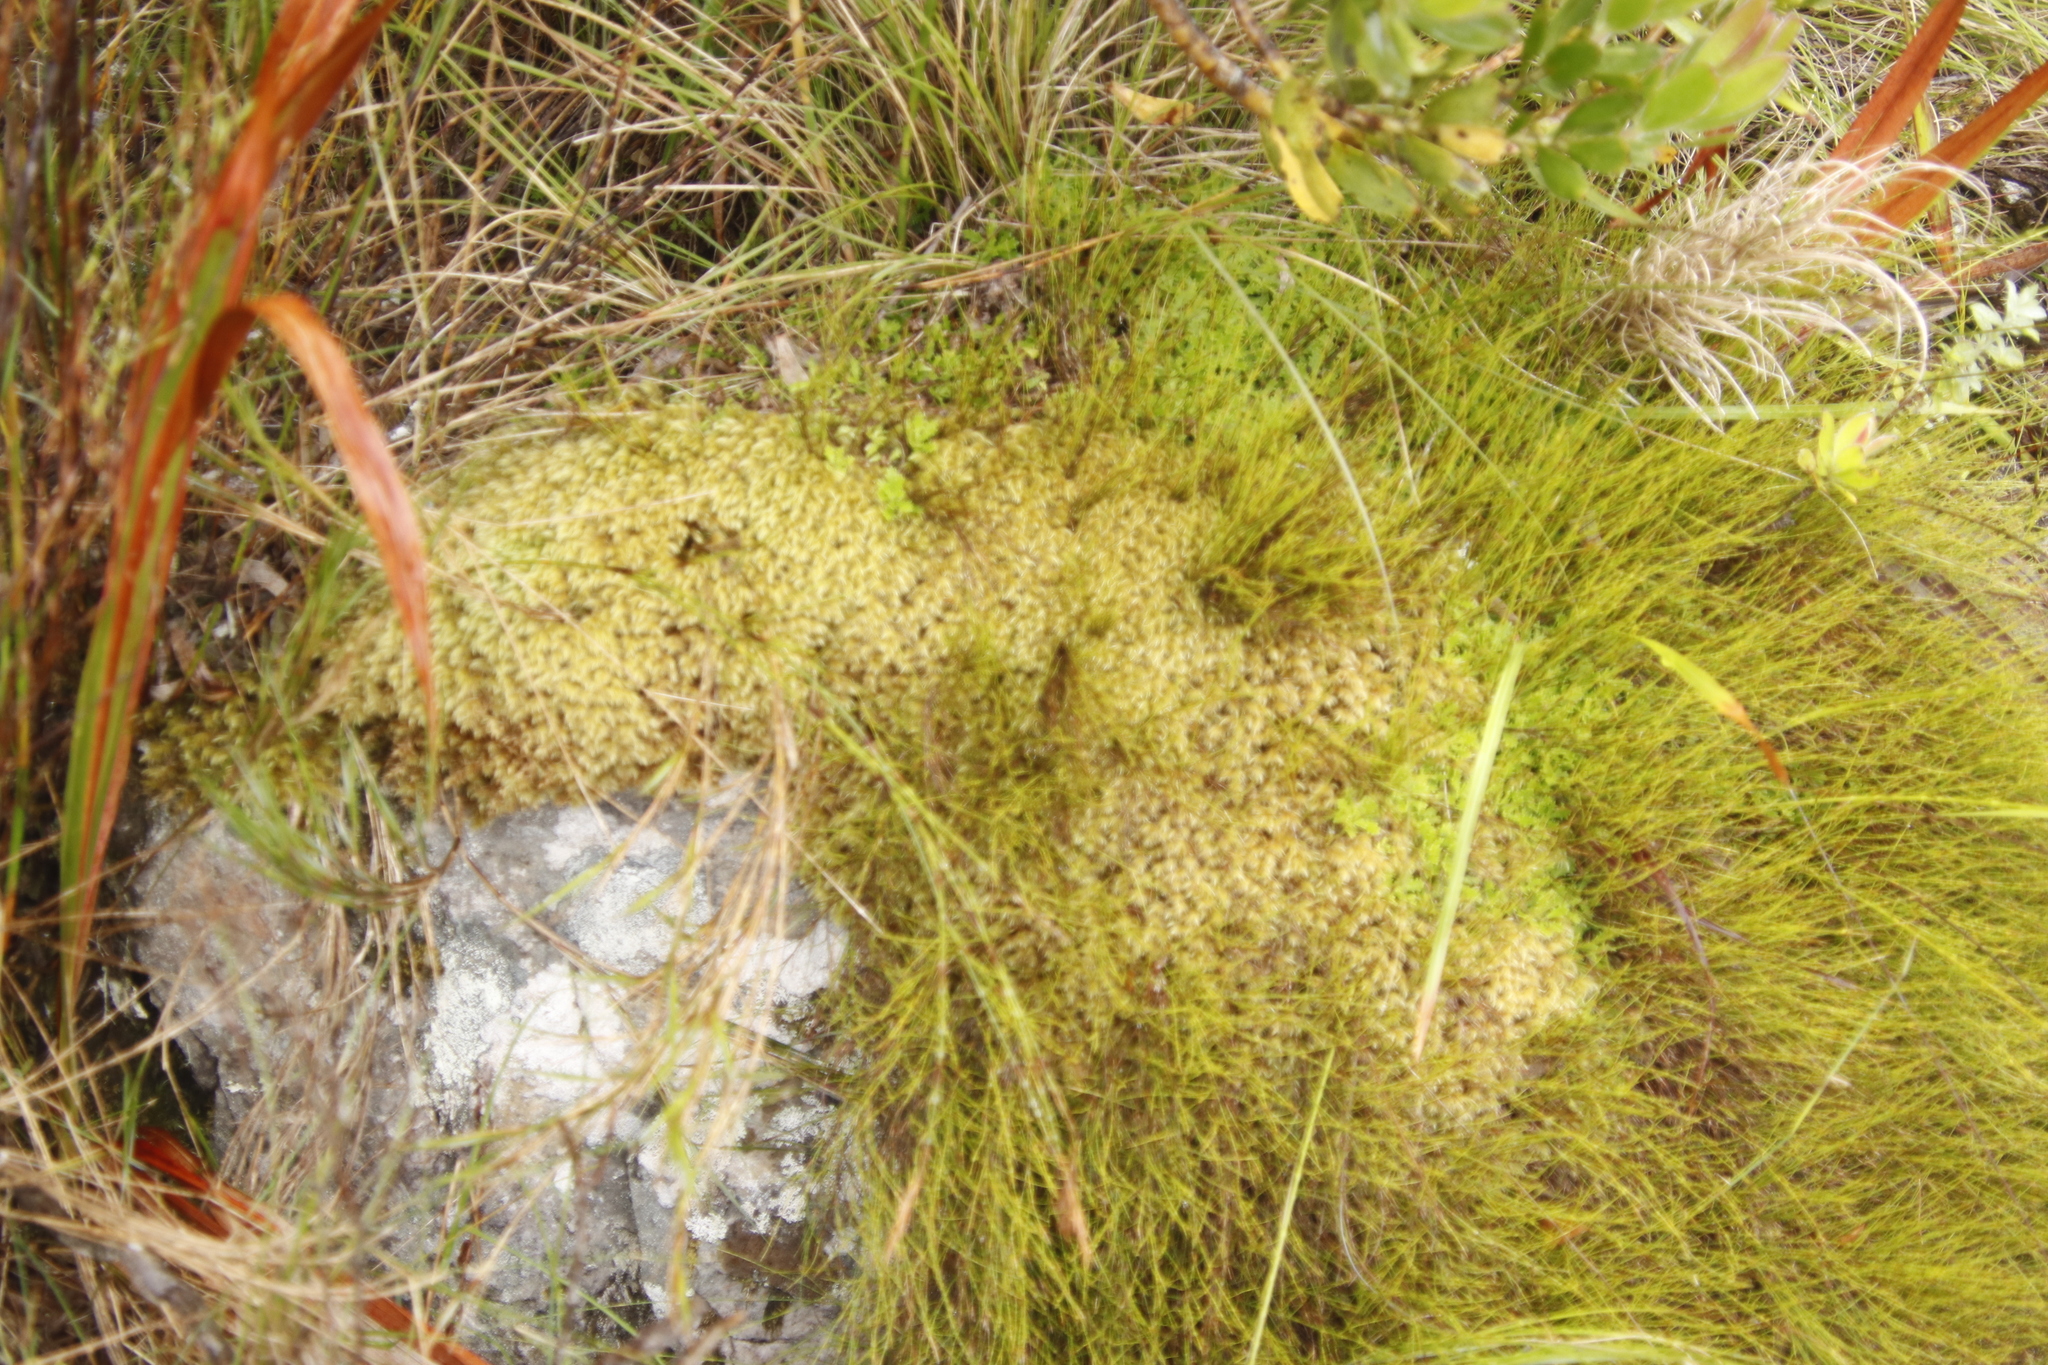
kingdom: Plantae
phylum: Bryophyta
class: Bryopsida
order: Dicranales
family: Dicranaceae
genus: Dicranoloma
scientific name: Dicranoloma billardieri
